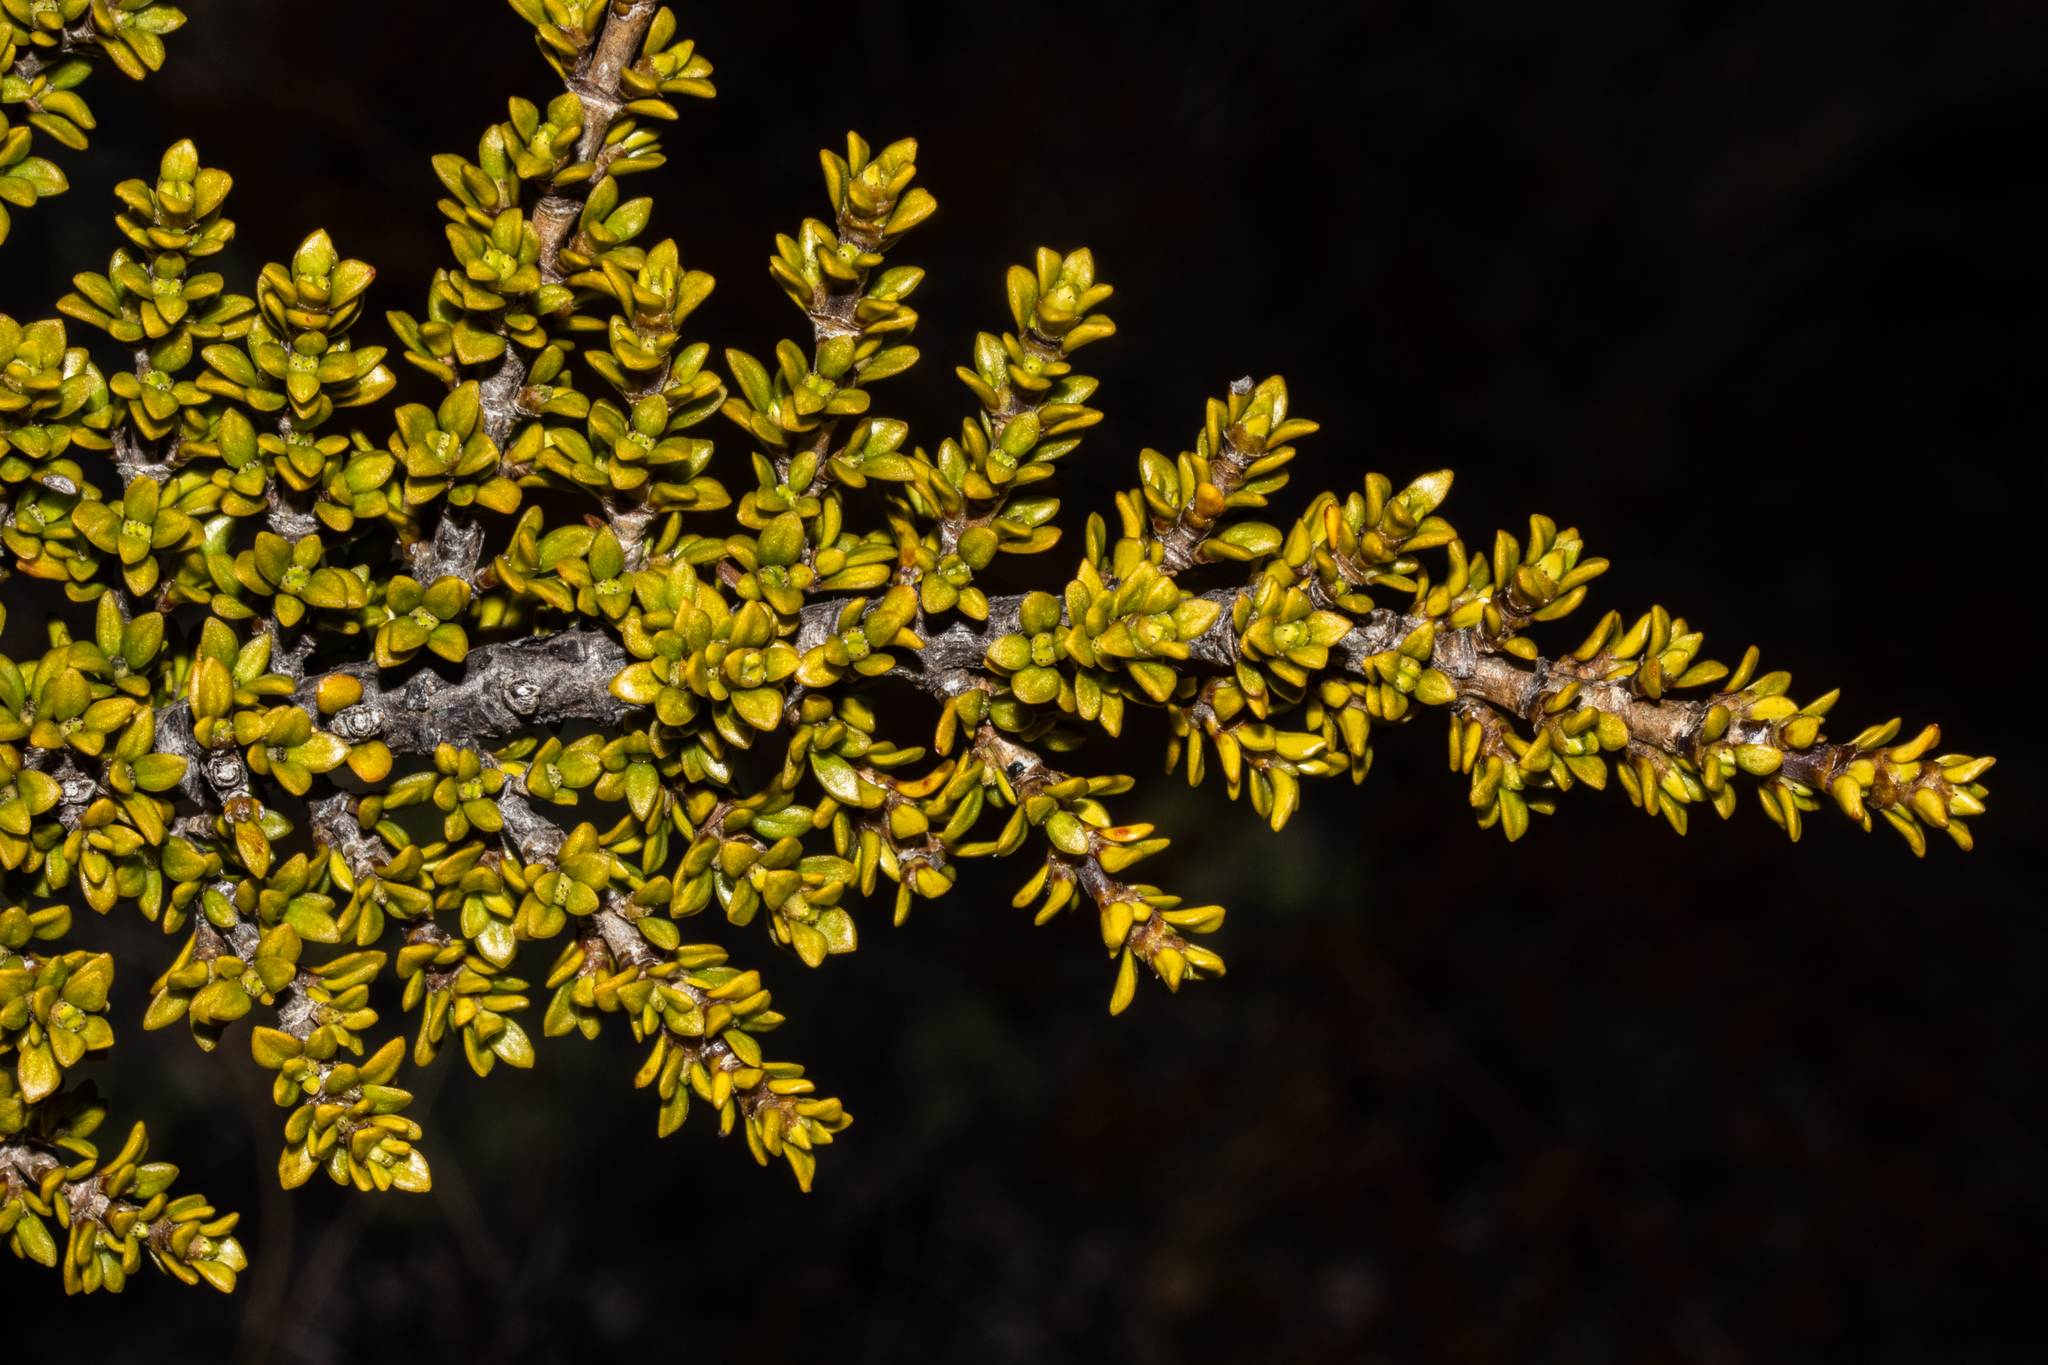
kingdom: Plantae
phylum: Tracheophyta
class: Magnoliopsida
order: Gentianales
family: Rubiaceae
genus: Coprosma
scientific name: Coprosma fowerakeri
